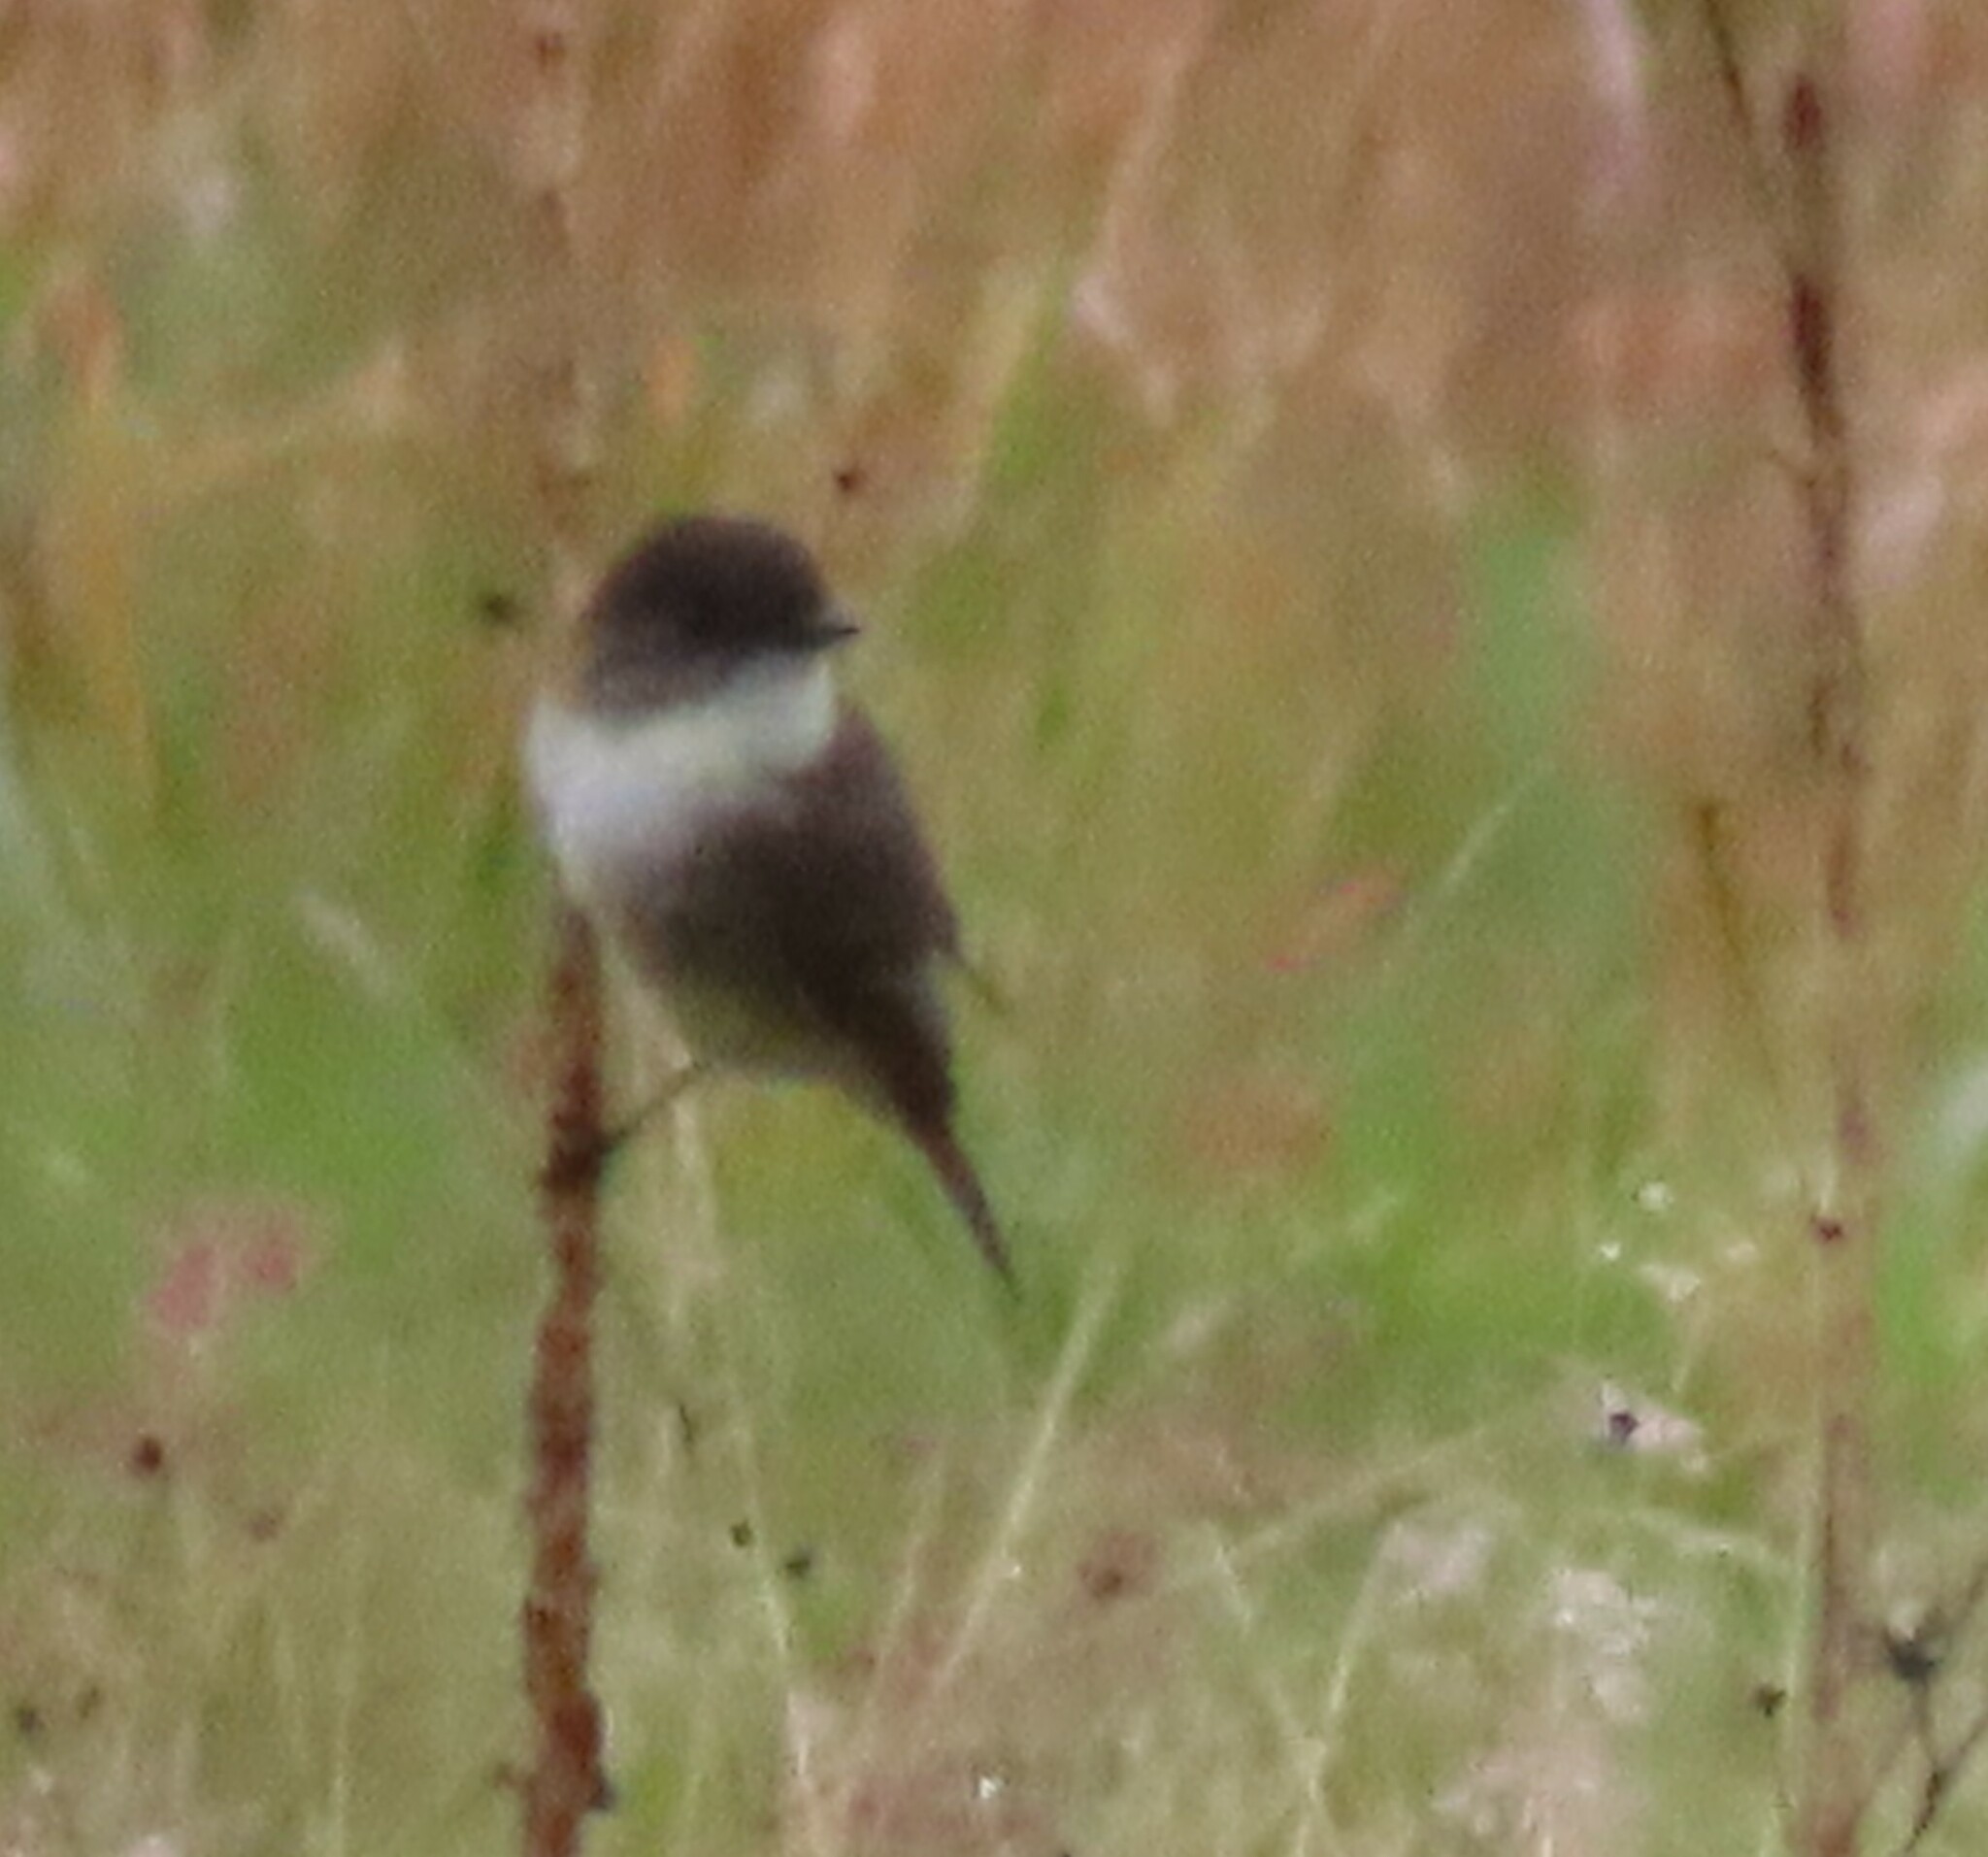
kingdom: Animalia
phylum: Chordata
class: Aves
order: Passeriformes
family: Tyrannidae
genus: Sayornis
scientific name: Sayornis phoebe
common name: Eastern phoebe
